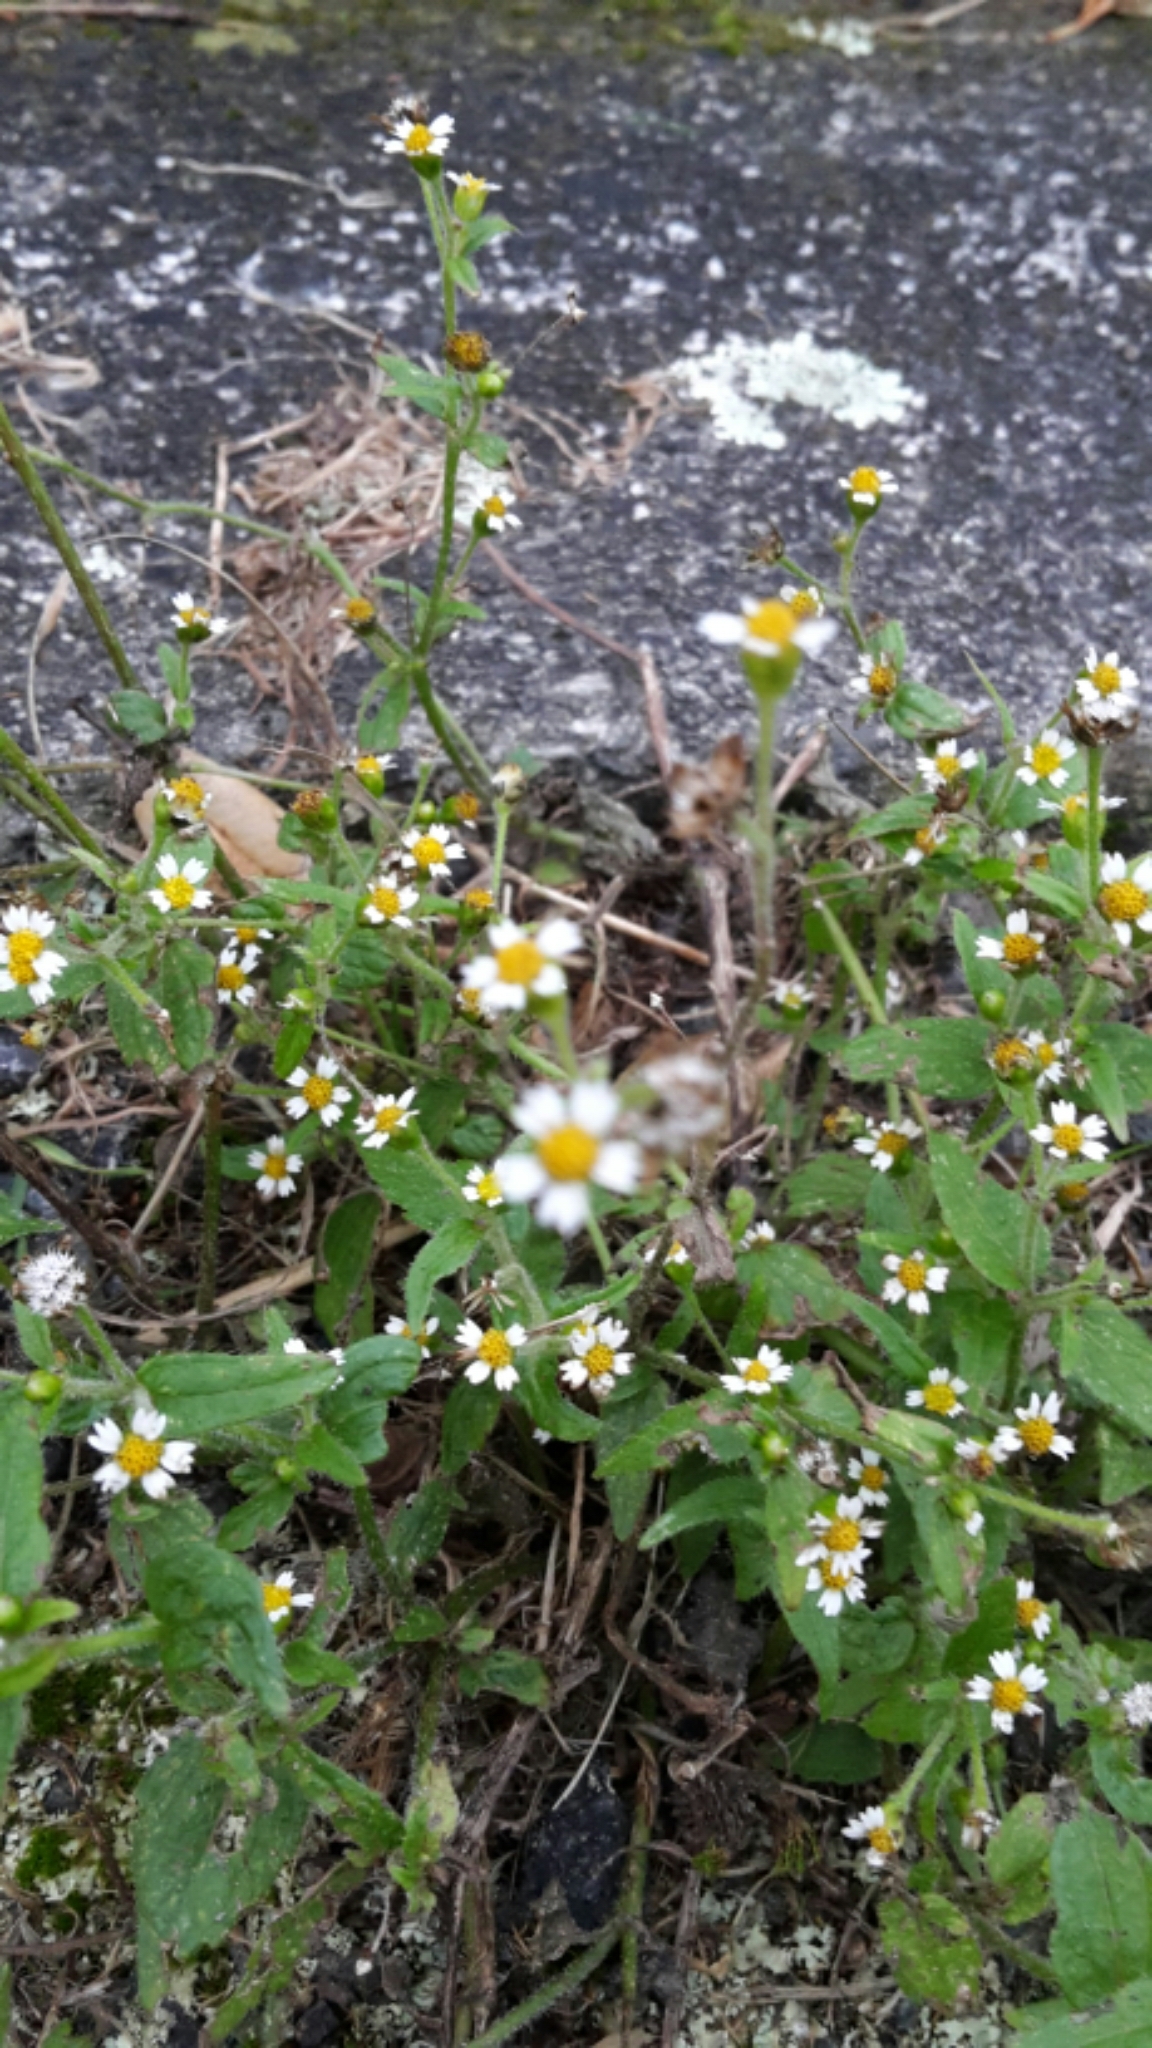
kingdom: Plantae
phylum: Tracheophyta
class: Magnoliopsida
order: Asterales
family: Asteraceae
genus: Galinsoga
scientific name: Galinsoga quadriradiata
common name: Shaggy soldier
